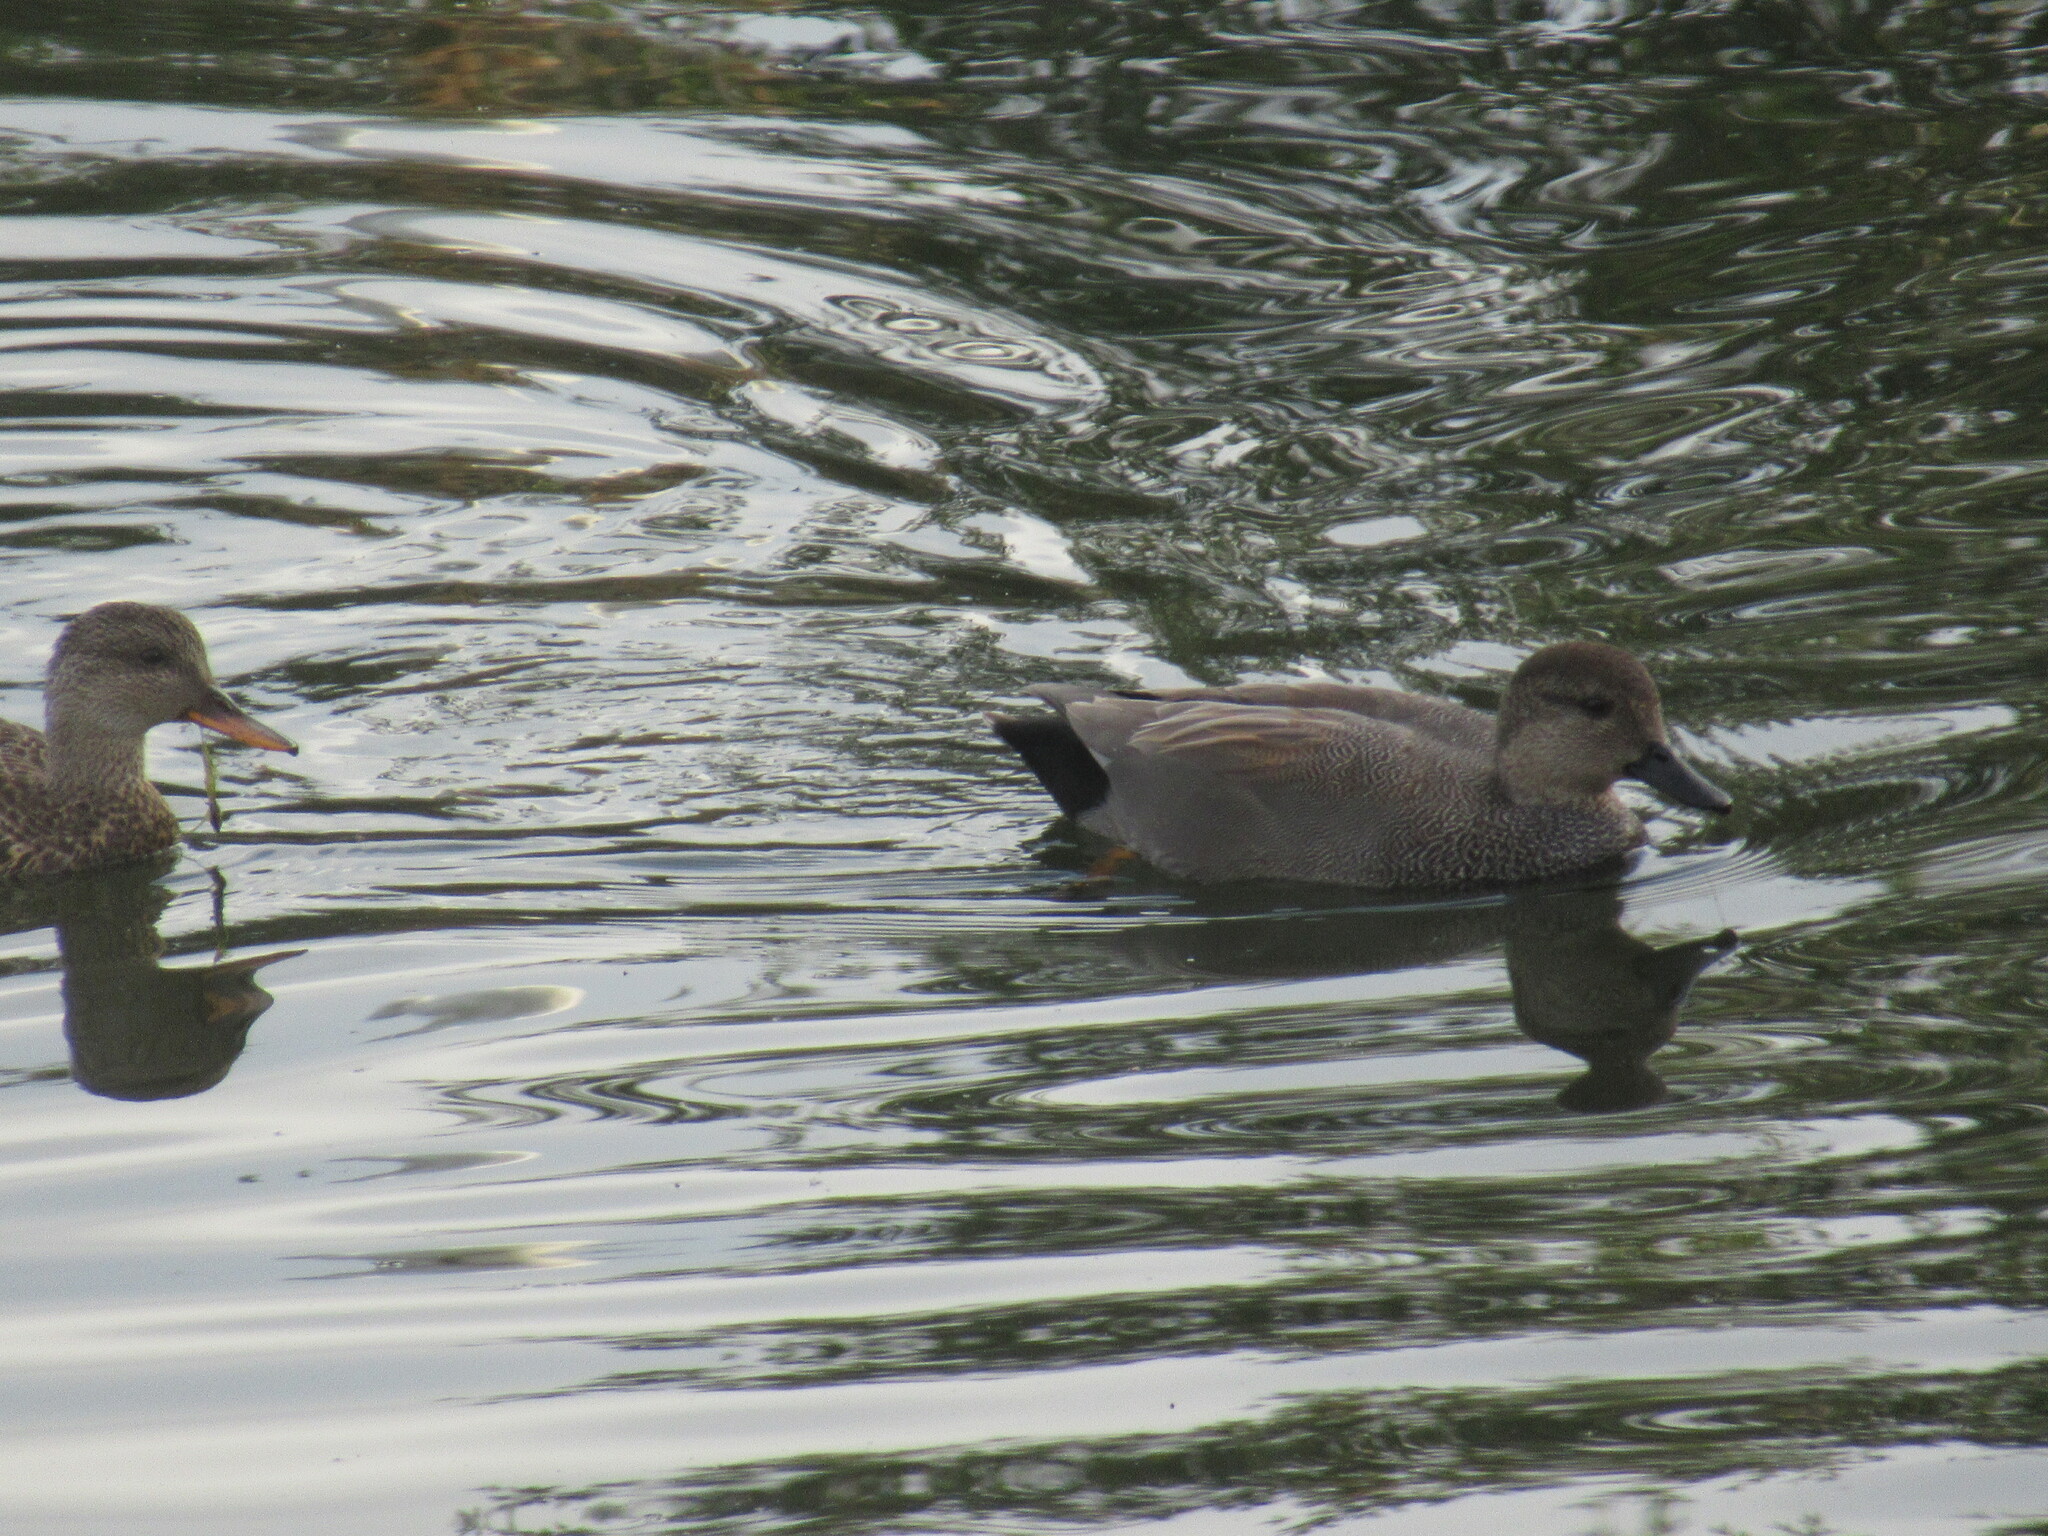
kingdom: Animalia
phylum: Chordata
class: Aves
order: Anseriformes
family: Anatidae
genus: Mareca
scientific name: Mareca strepera
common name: Gadwall
